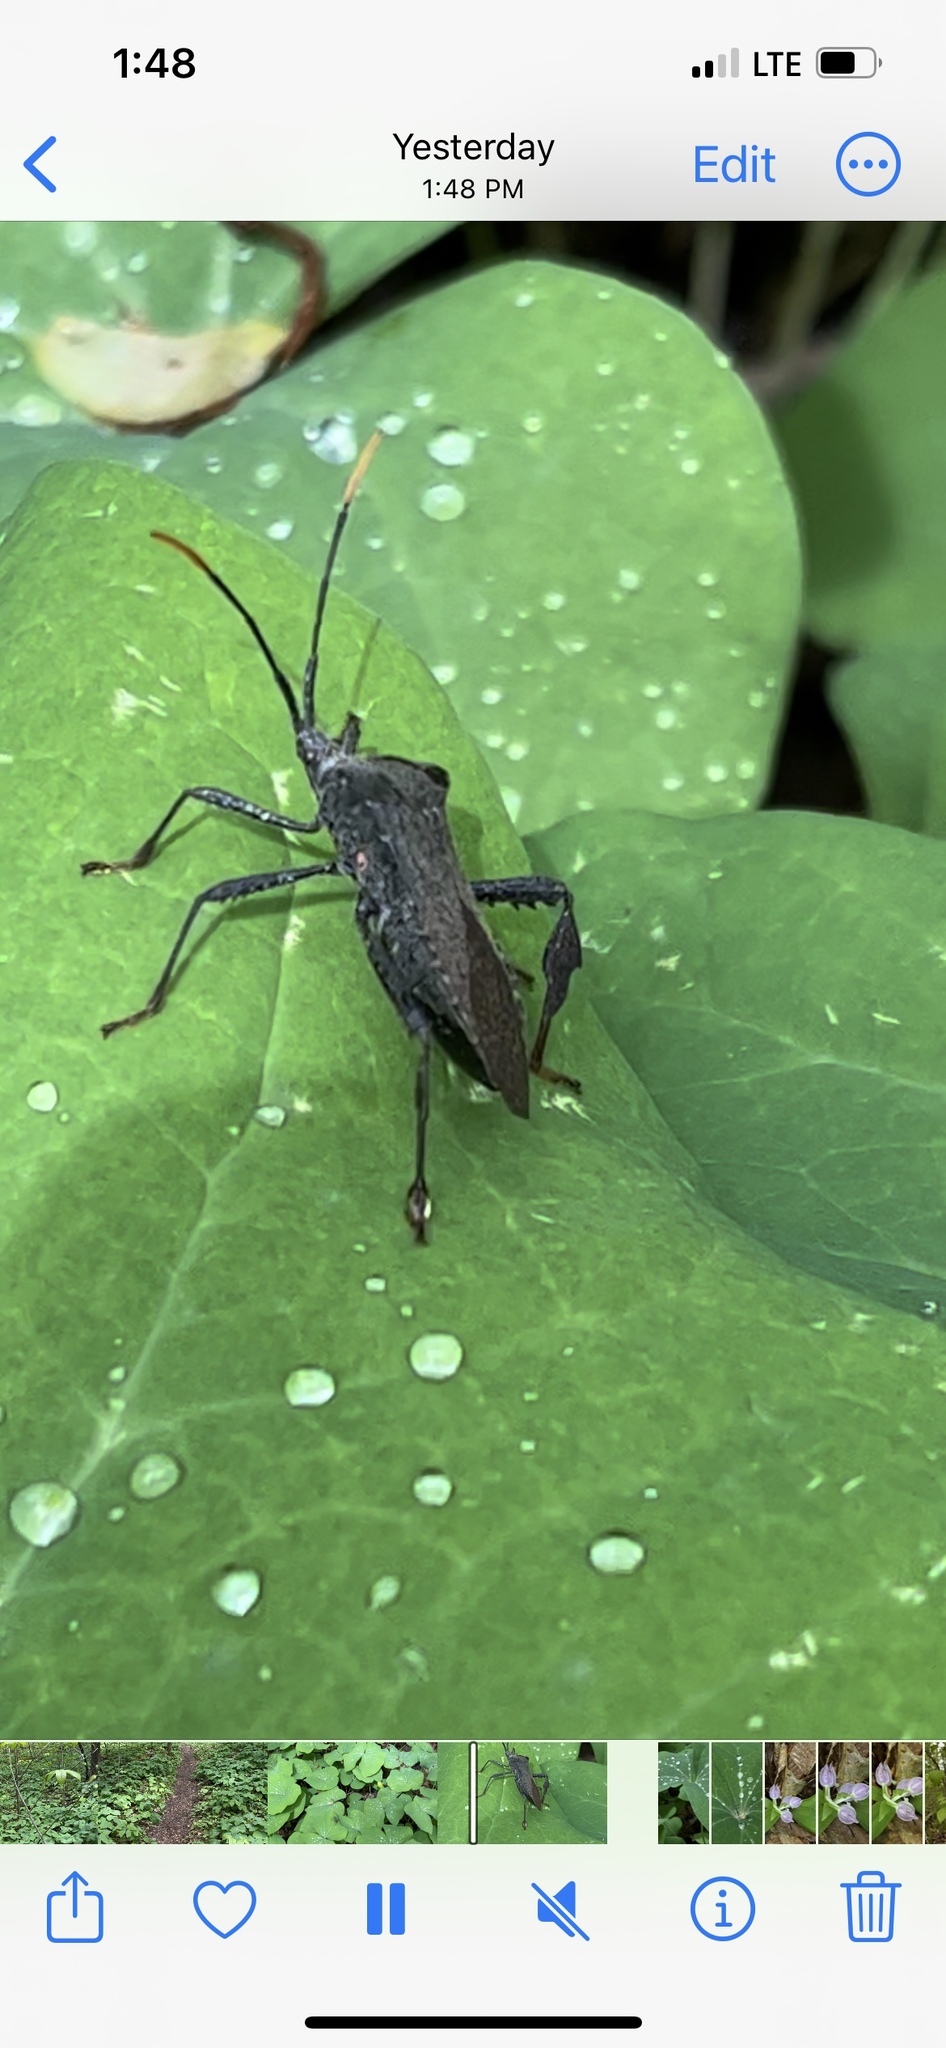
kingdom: Animalia
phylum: Arthropoda
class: Insecta
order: Hemiptera
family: Coreidae
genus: Acanthocephala
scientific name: Acanthocephala terminalis
